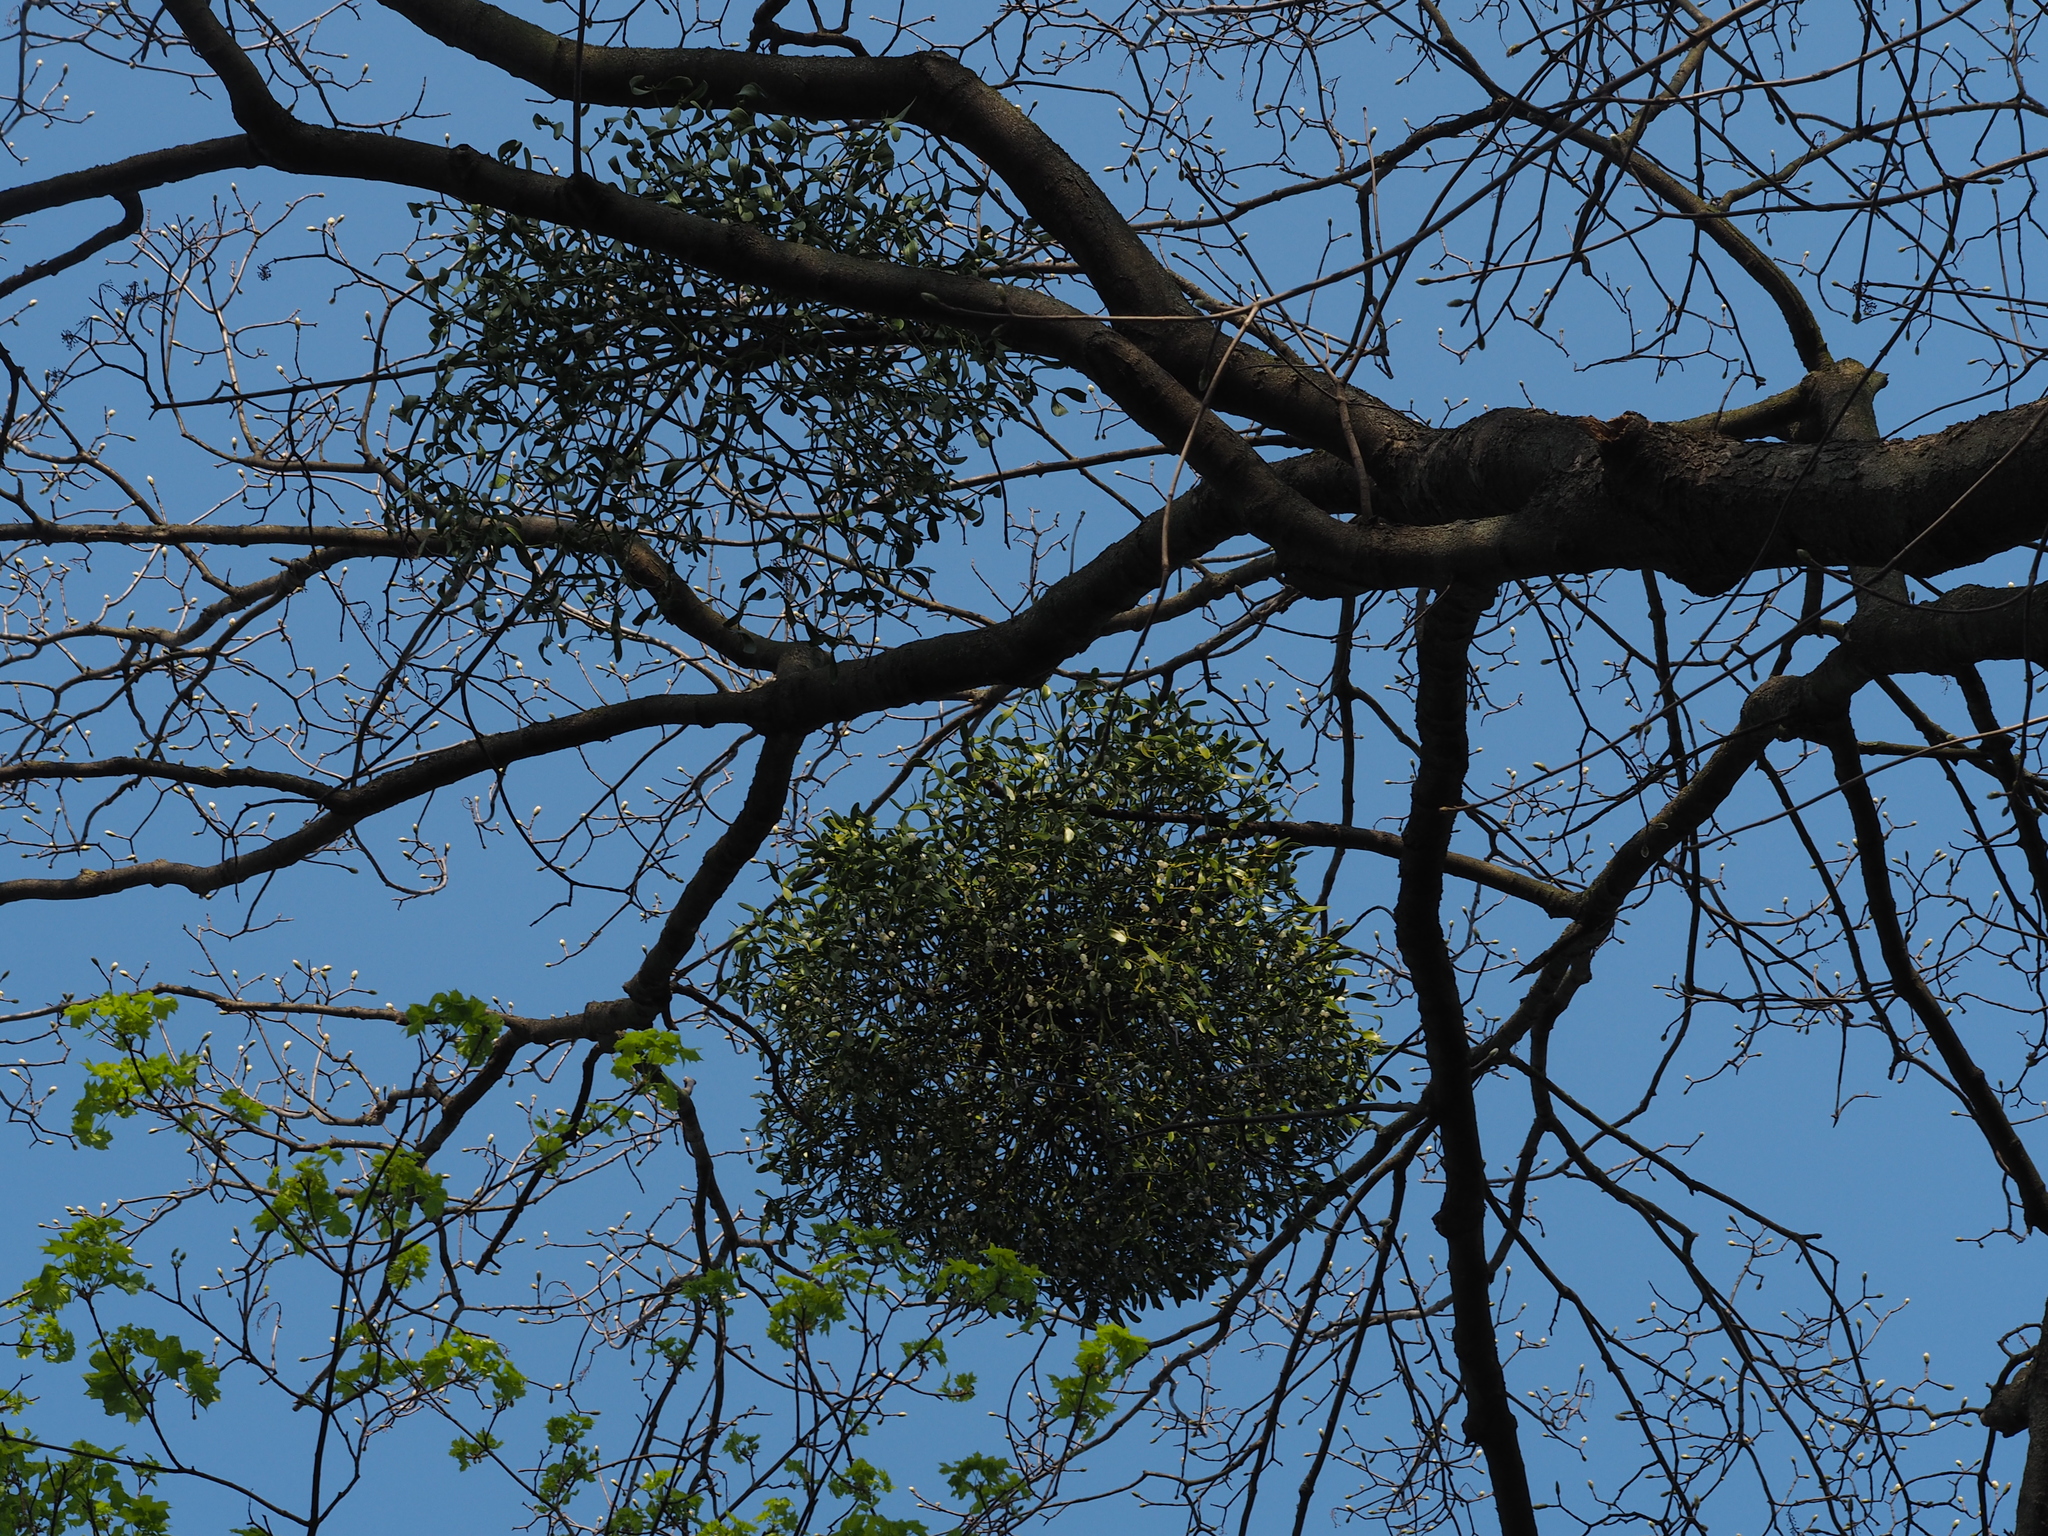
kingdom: Plantae
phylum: Tracheophyta
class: Magnoliopsida
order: Santalales
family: Viscaceae
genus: Viscum
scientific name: Viscum album
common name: Mistletoe
